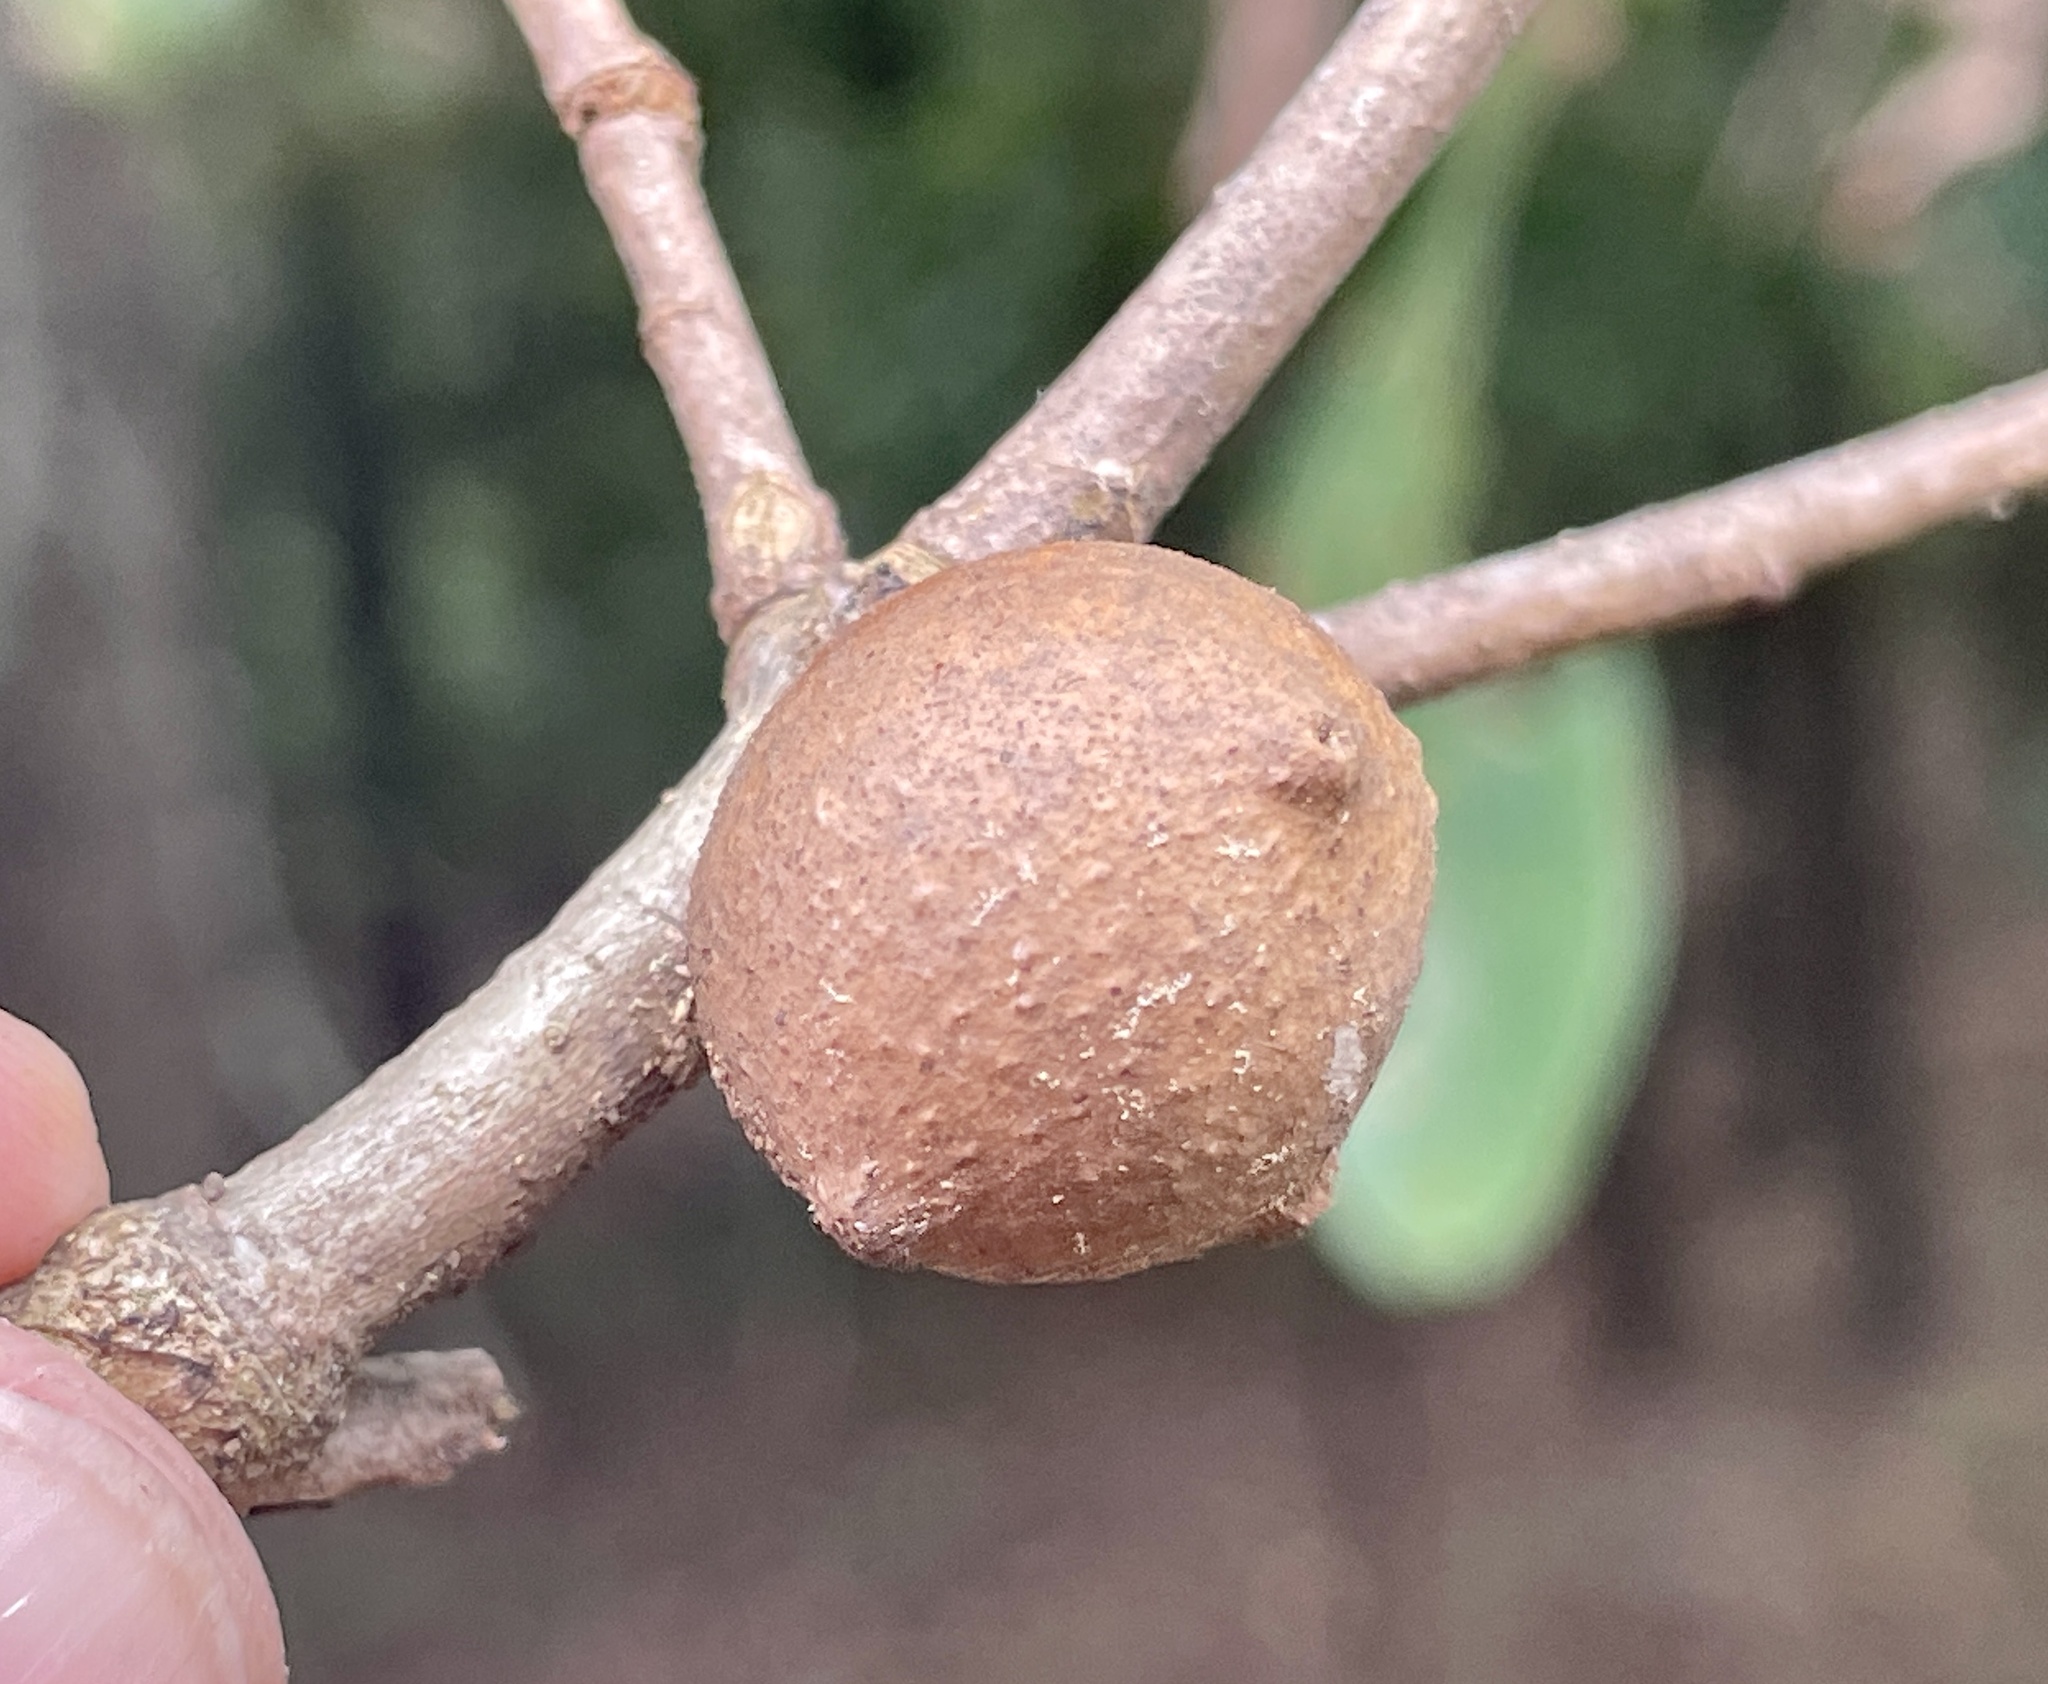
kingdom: Animalia
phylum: Arthropoda
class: Insecta
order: Hymenoptera
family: Cynipidae
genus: Disholcaspis
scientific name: Disholcaspis quercusglobulus
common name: Round bullet gall wasp
